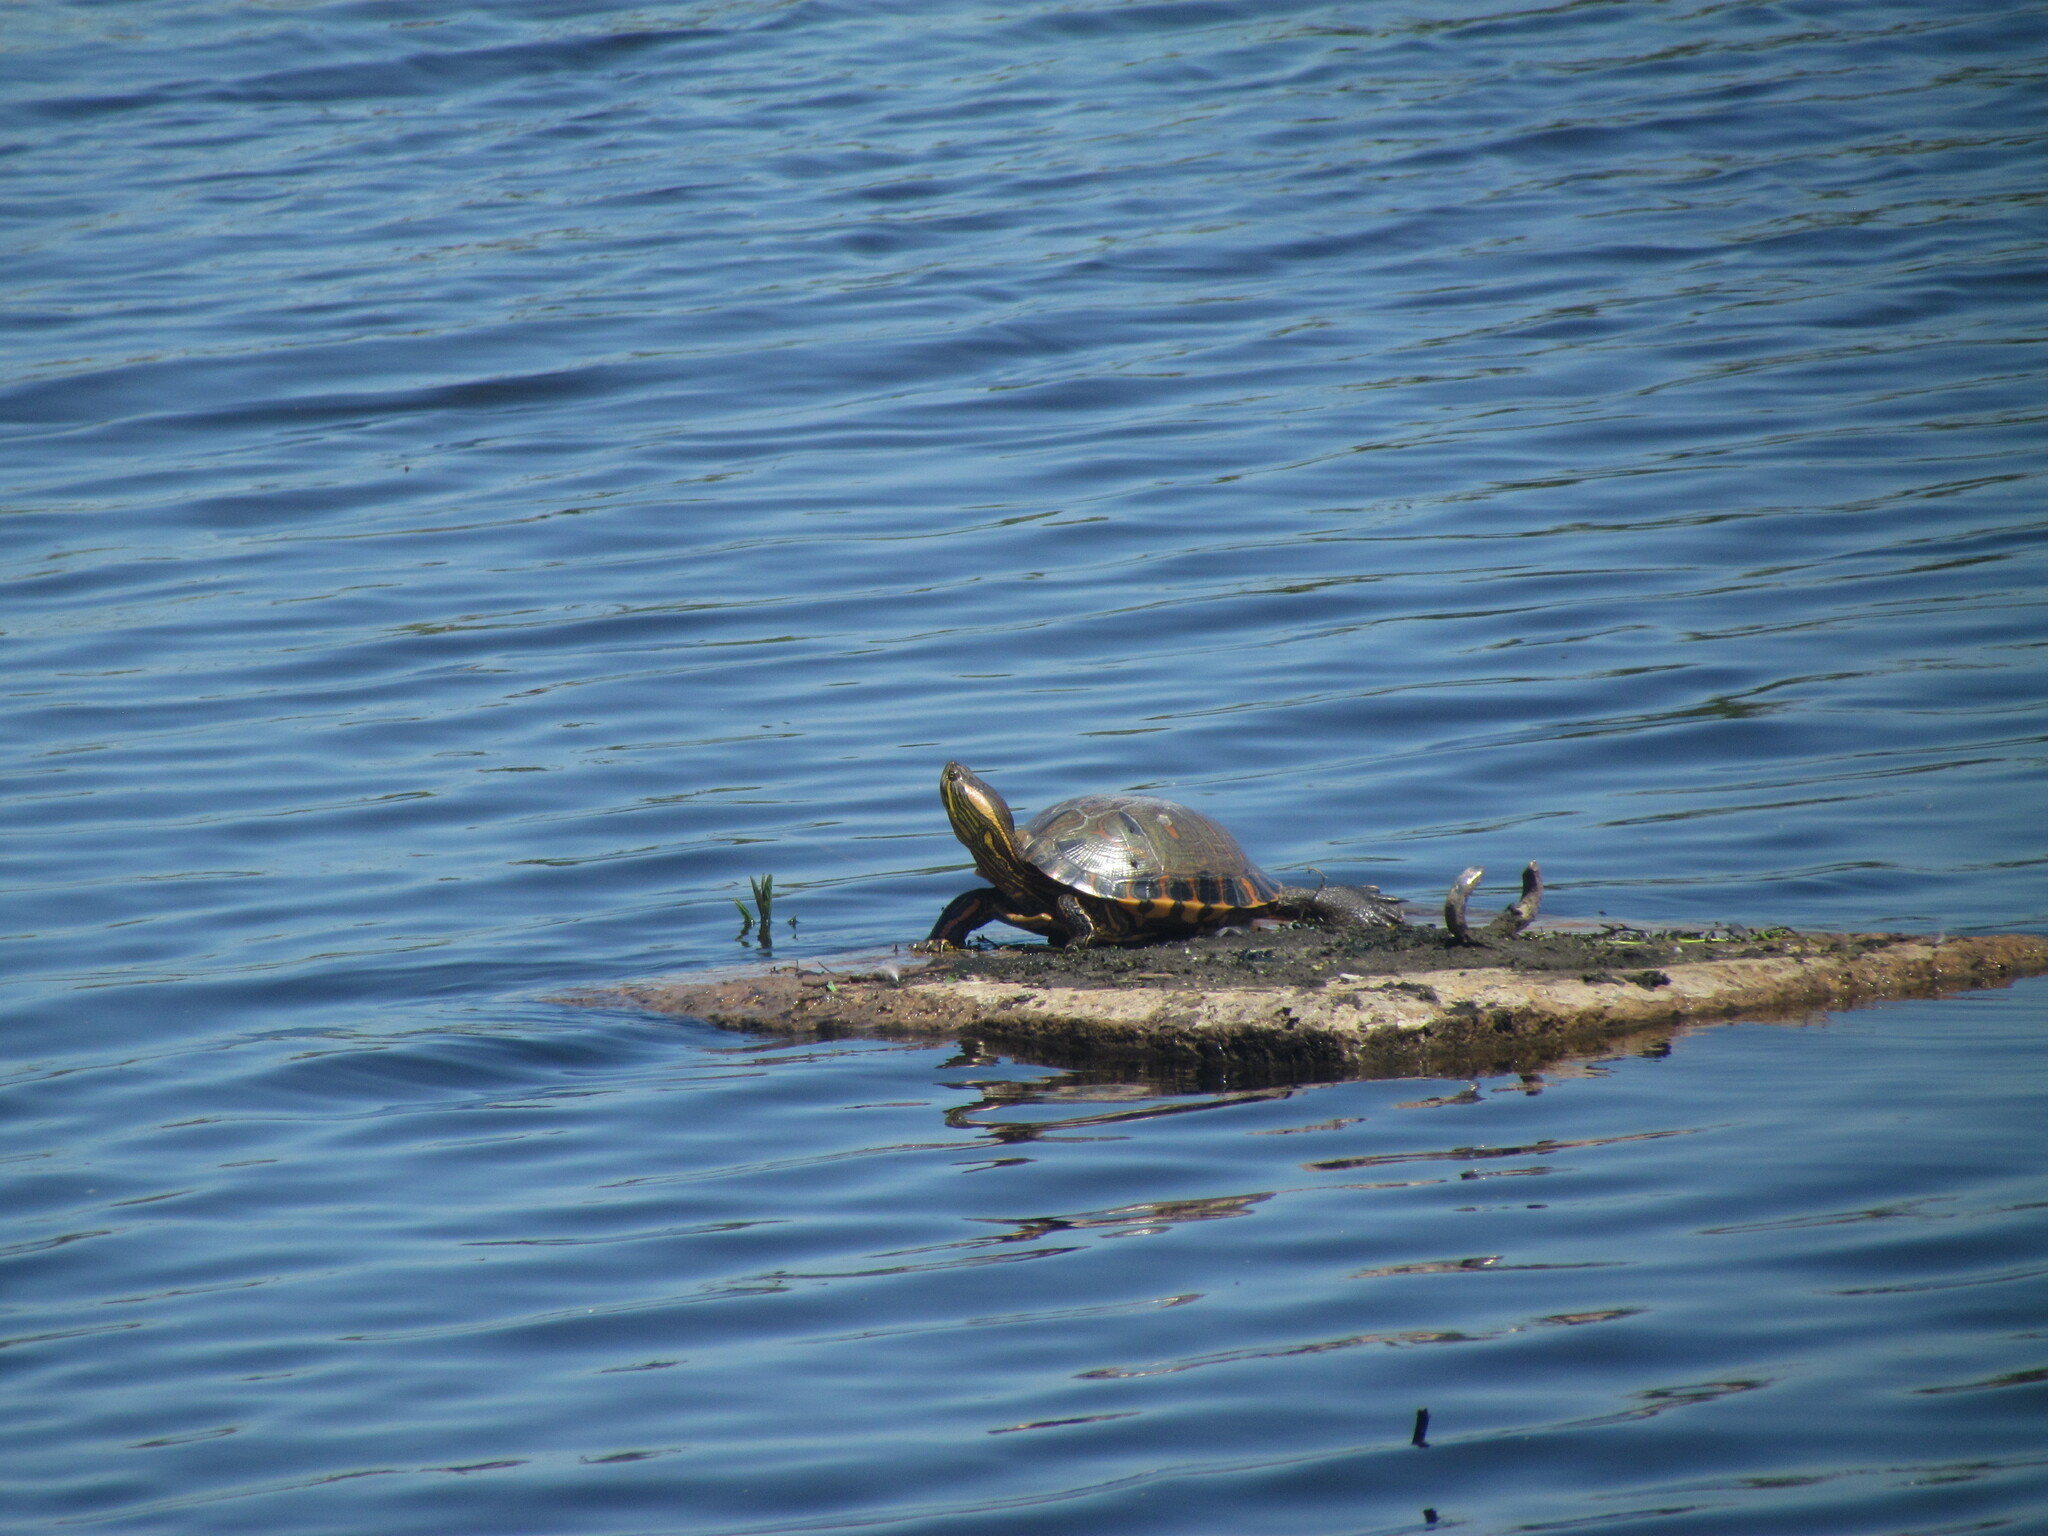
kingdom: Animalia
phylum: Chordata
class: Testudines
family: Emydidae
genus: Trachemys
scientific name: Trachemys dorbigni
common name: Black-bellied slider
